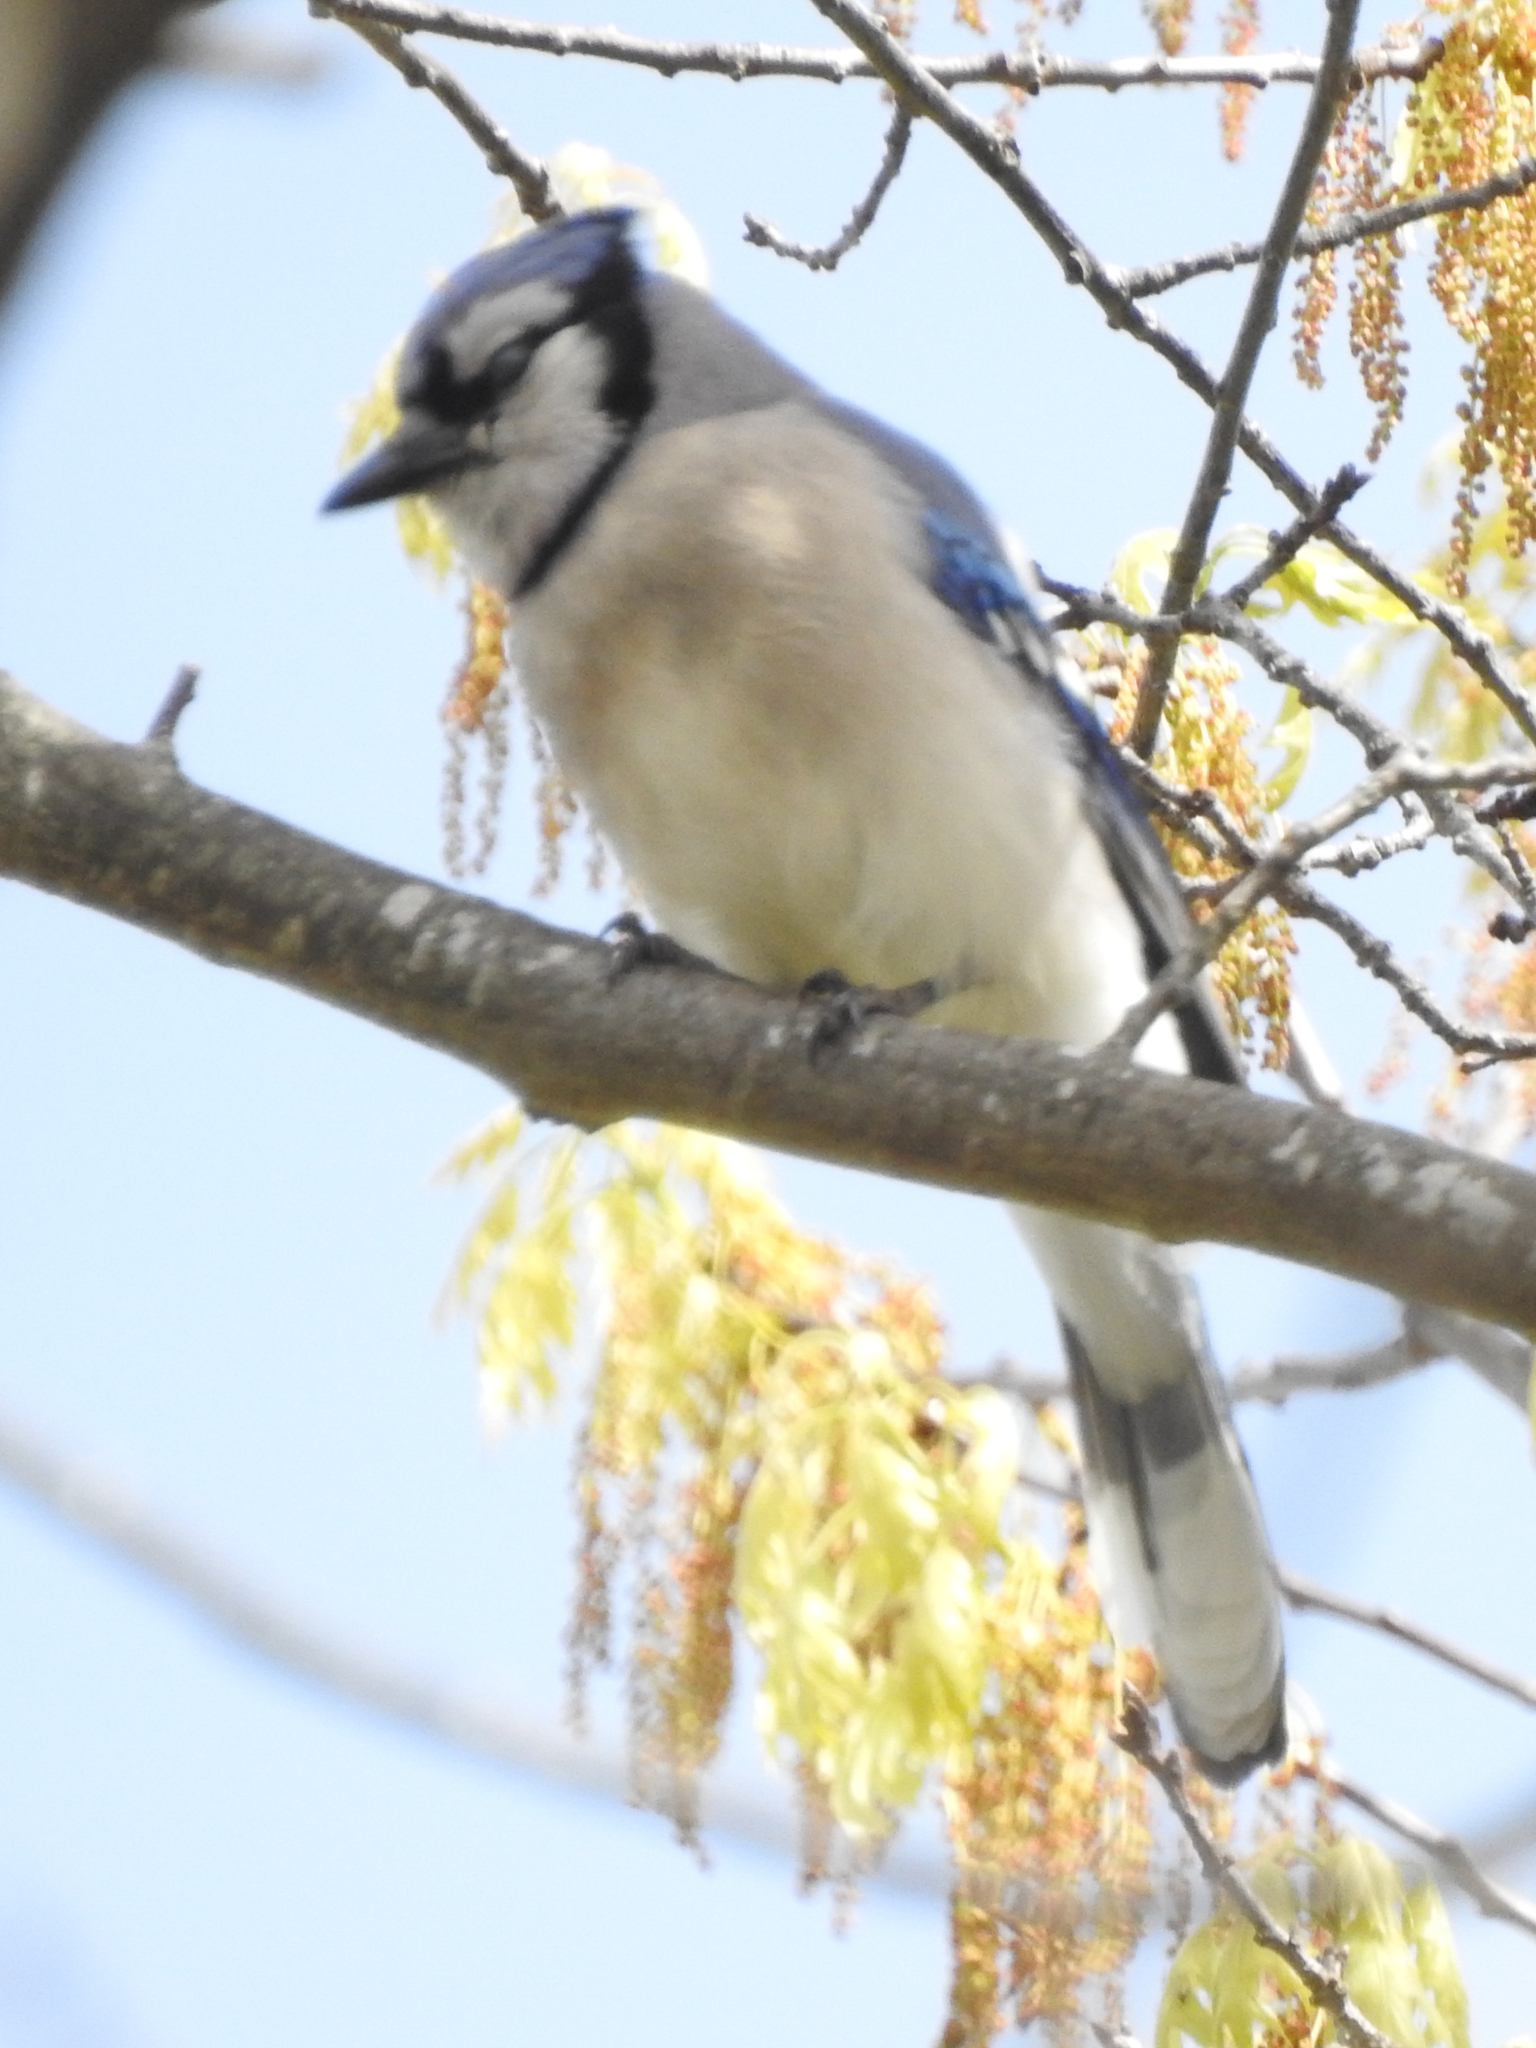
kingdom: Animalia
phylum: Chordata
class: Aves
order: Passeriformes
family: Corvidae
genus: Cyanocitta
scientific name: Cyanocitta cristata
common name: Blue jay
